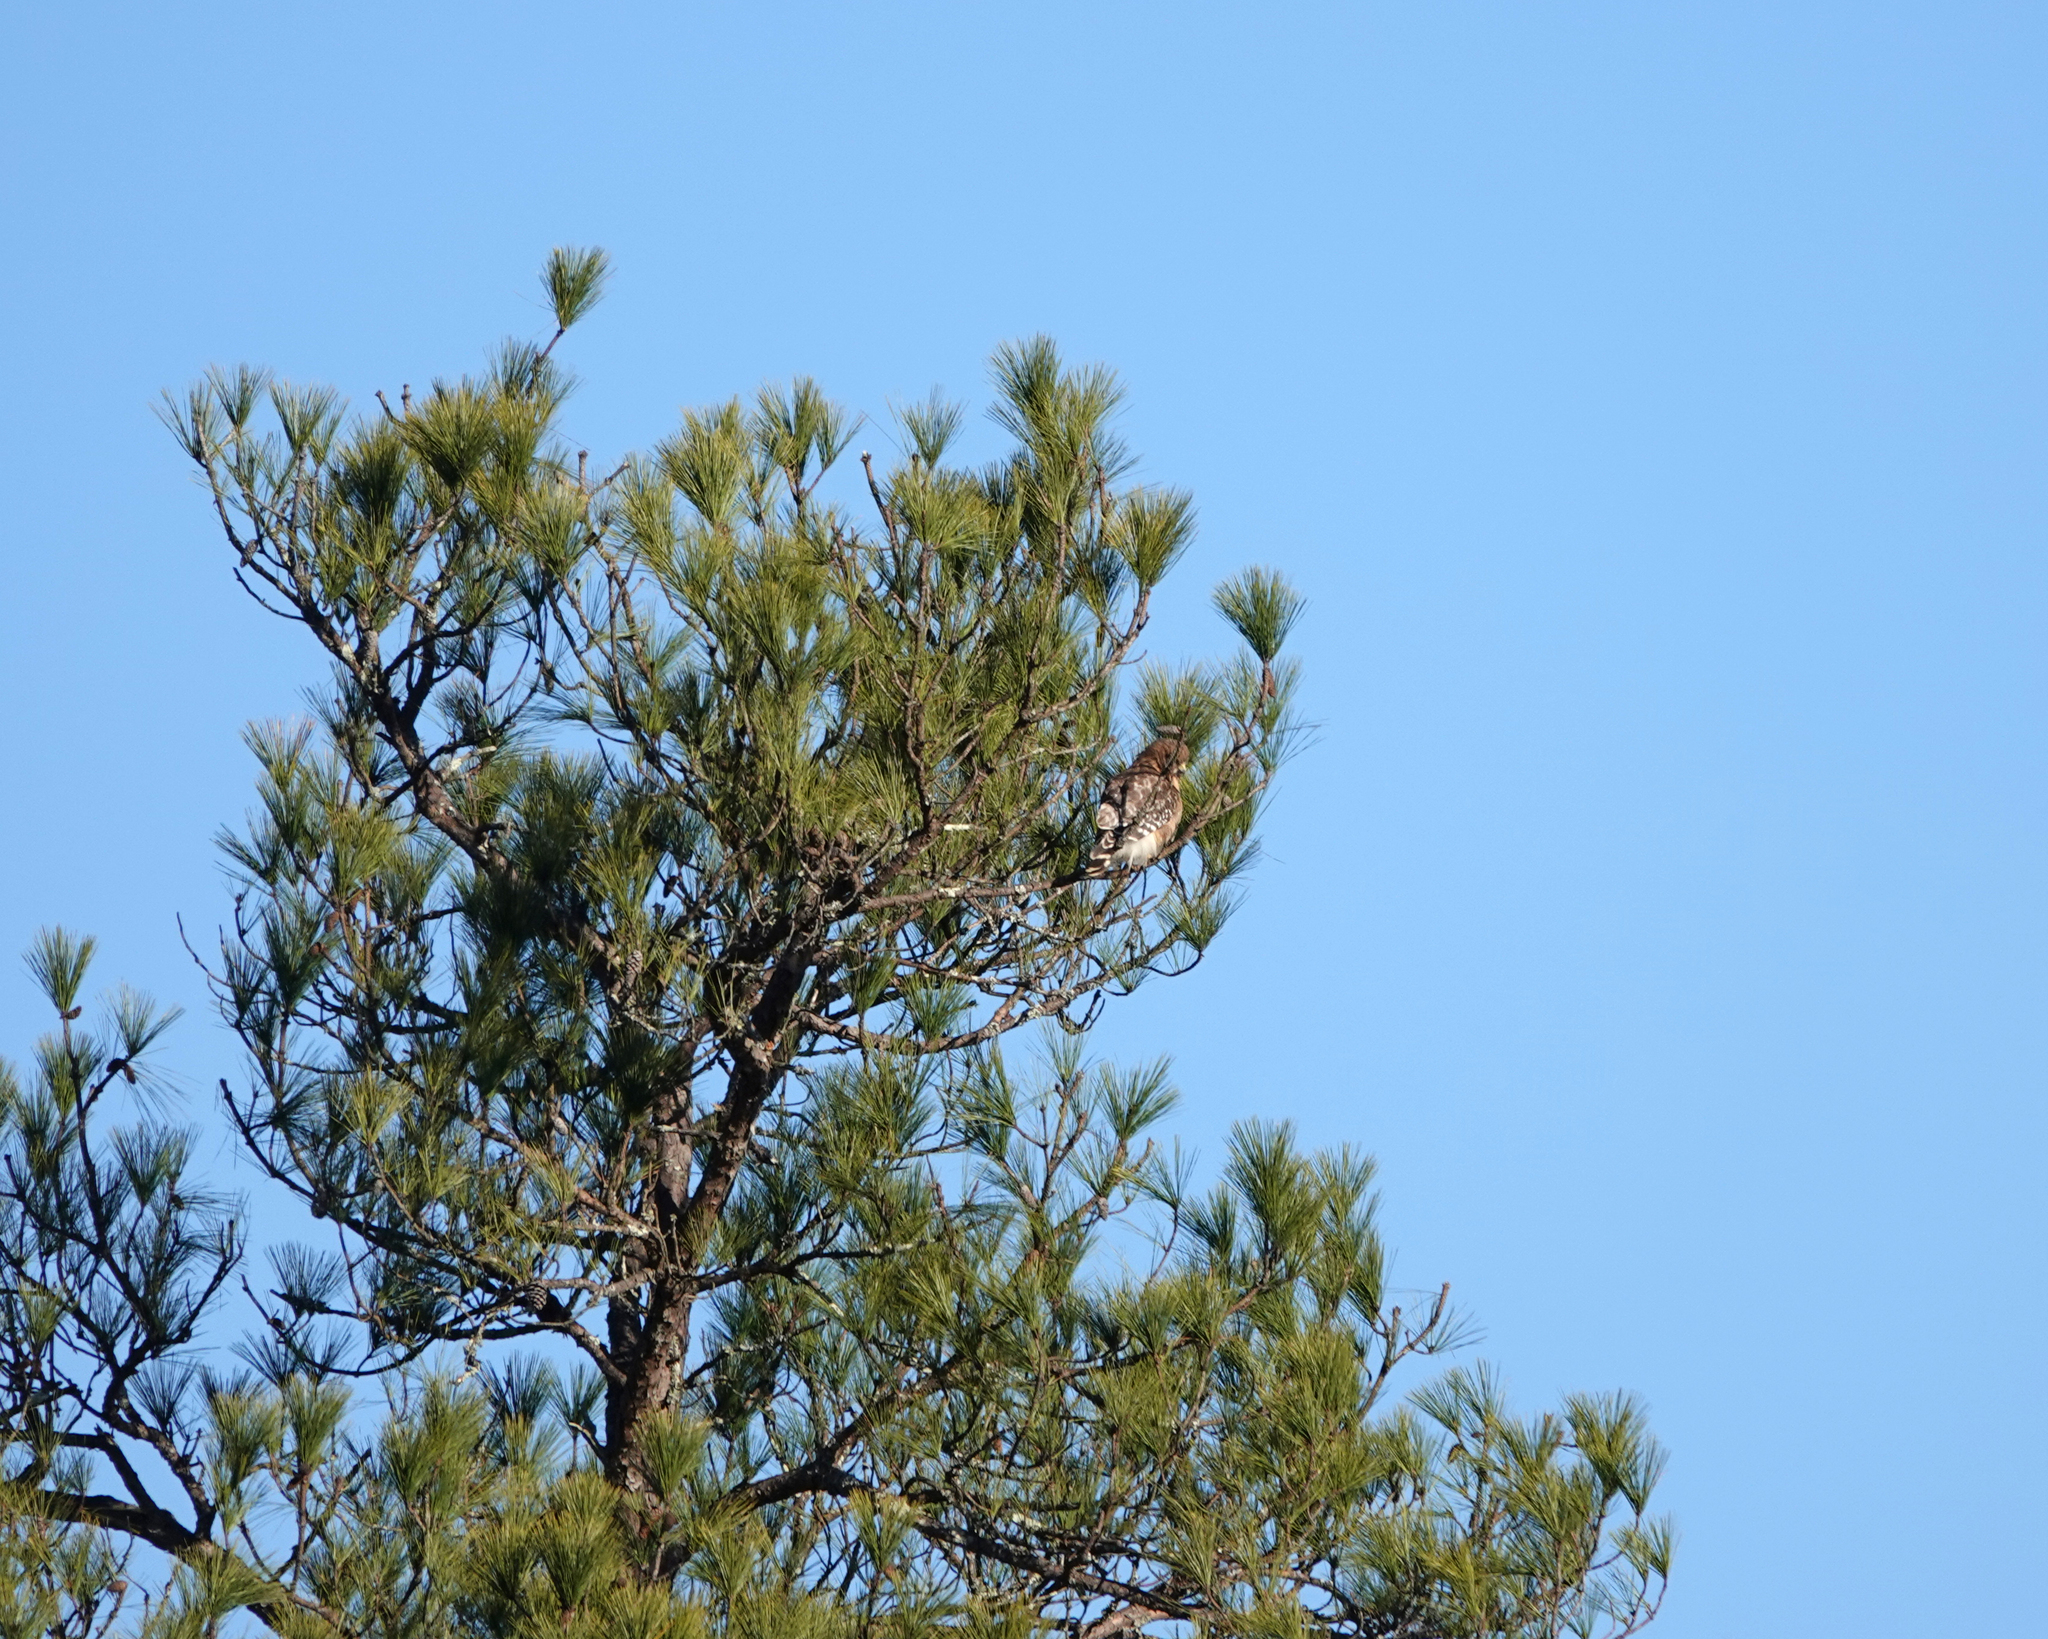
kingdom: Animalia
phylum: Chordata
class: Aves
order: Accipitriformes
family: Accipitridae
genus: Buteo
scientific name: Buteo lineatus
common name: Red-shouldered hawk
